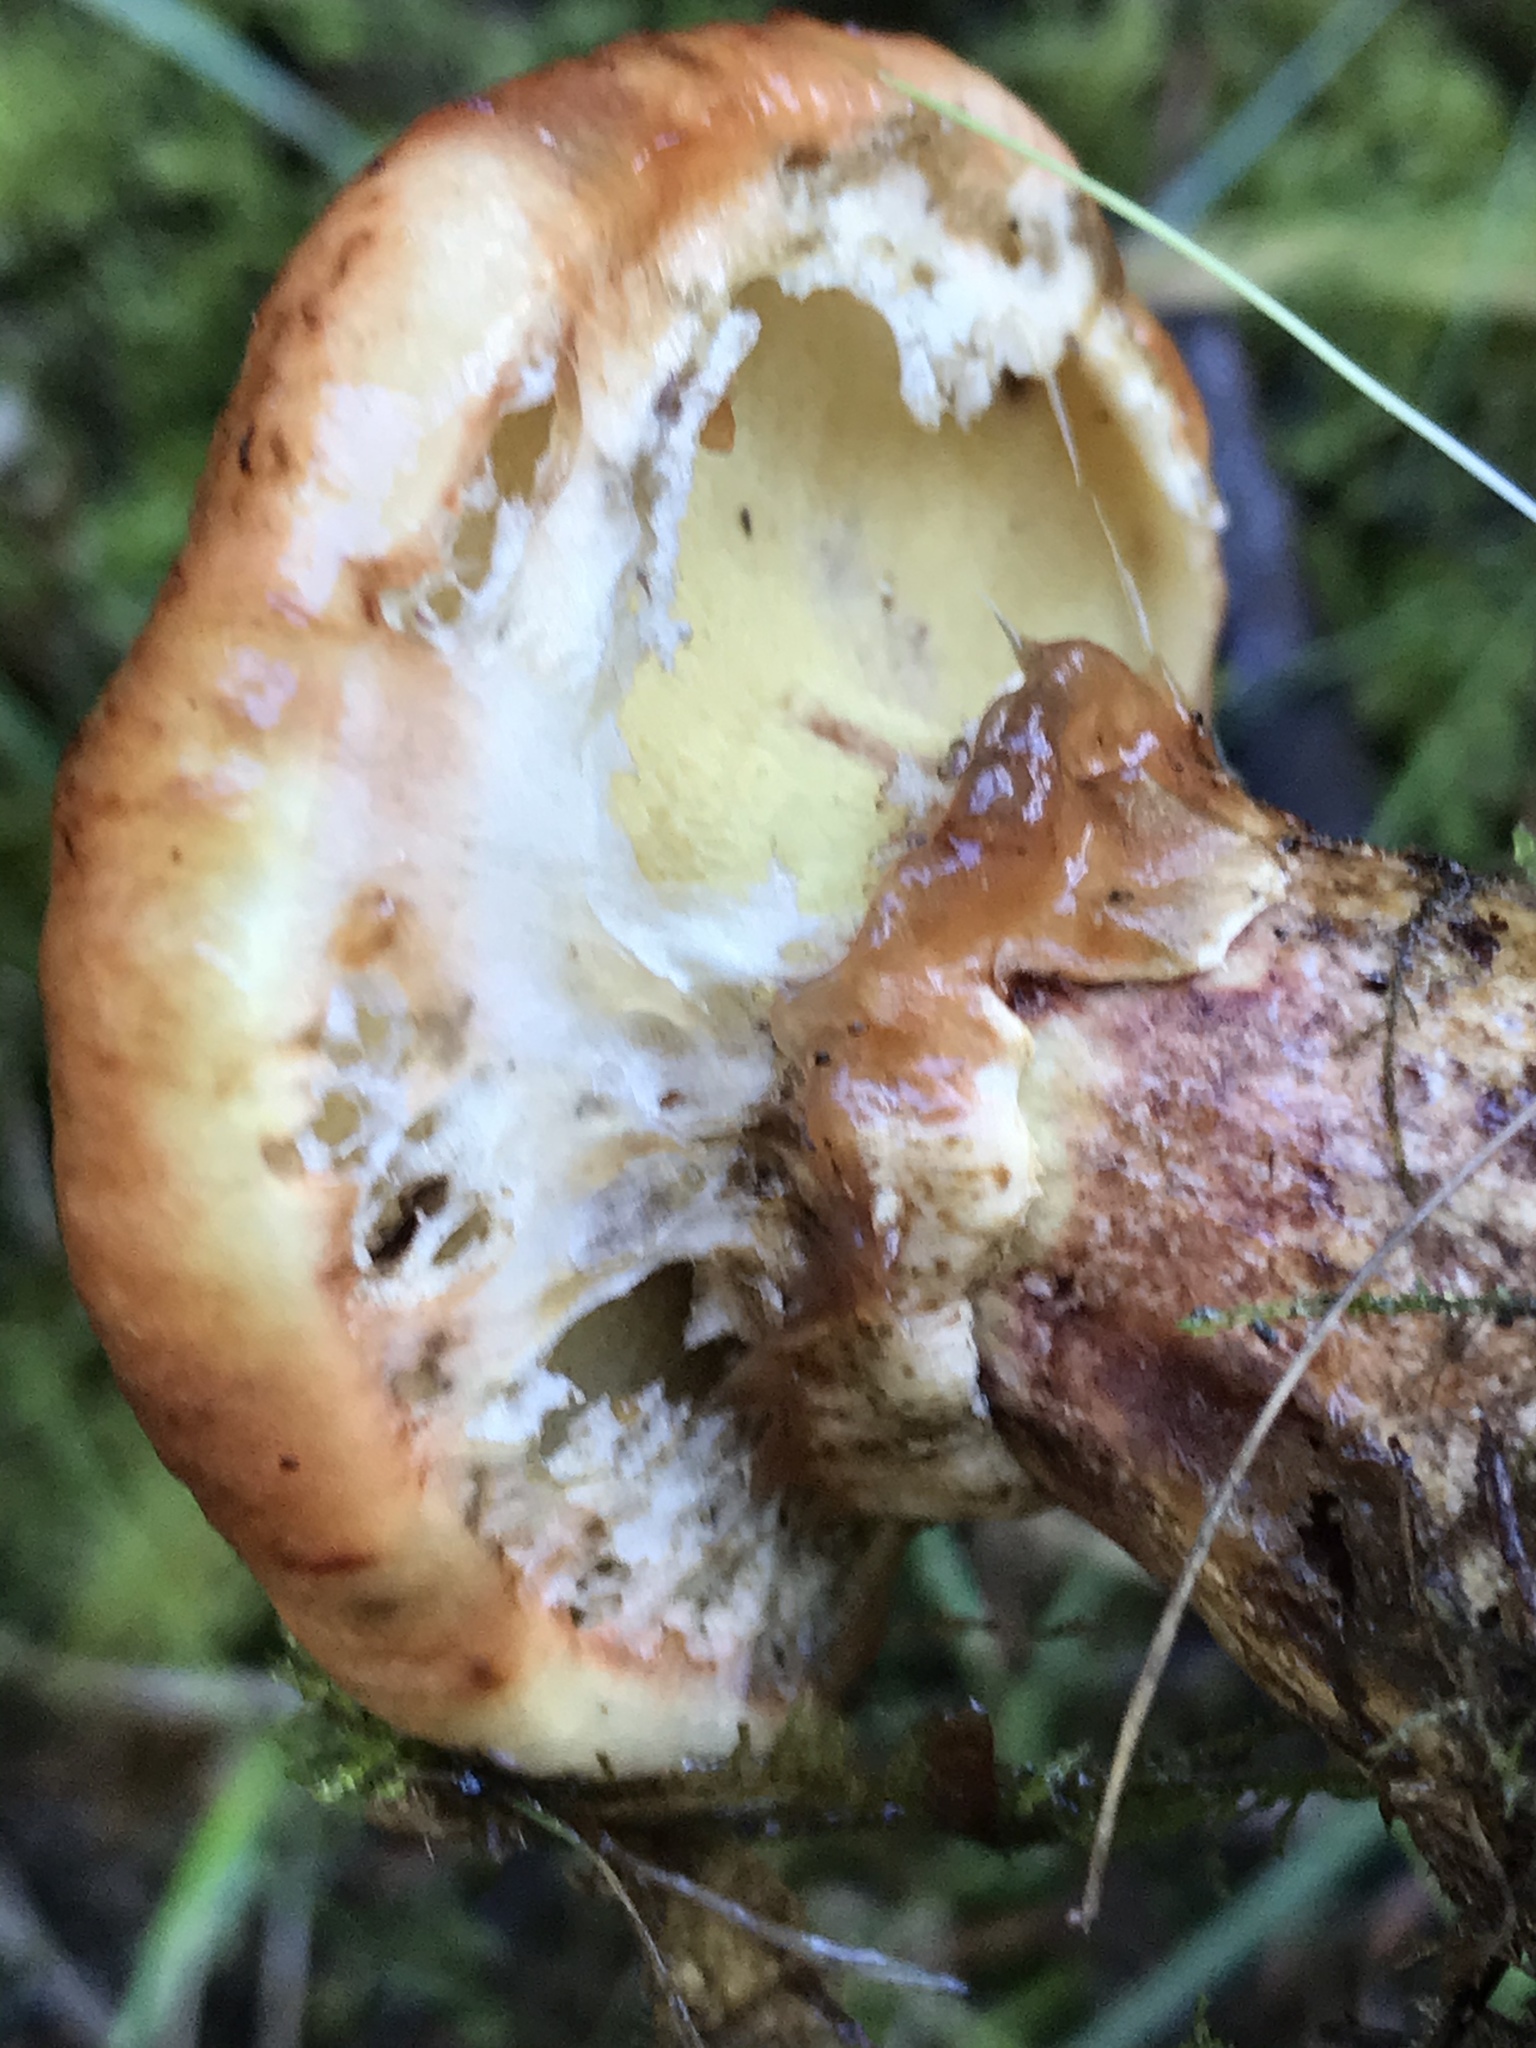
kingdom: Fungi
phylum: Basidiomycota
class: Agaricomycetes
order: Boletales
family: Suillaceae
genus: Suillus
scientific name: Suillus caerulescens
